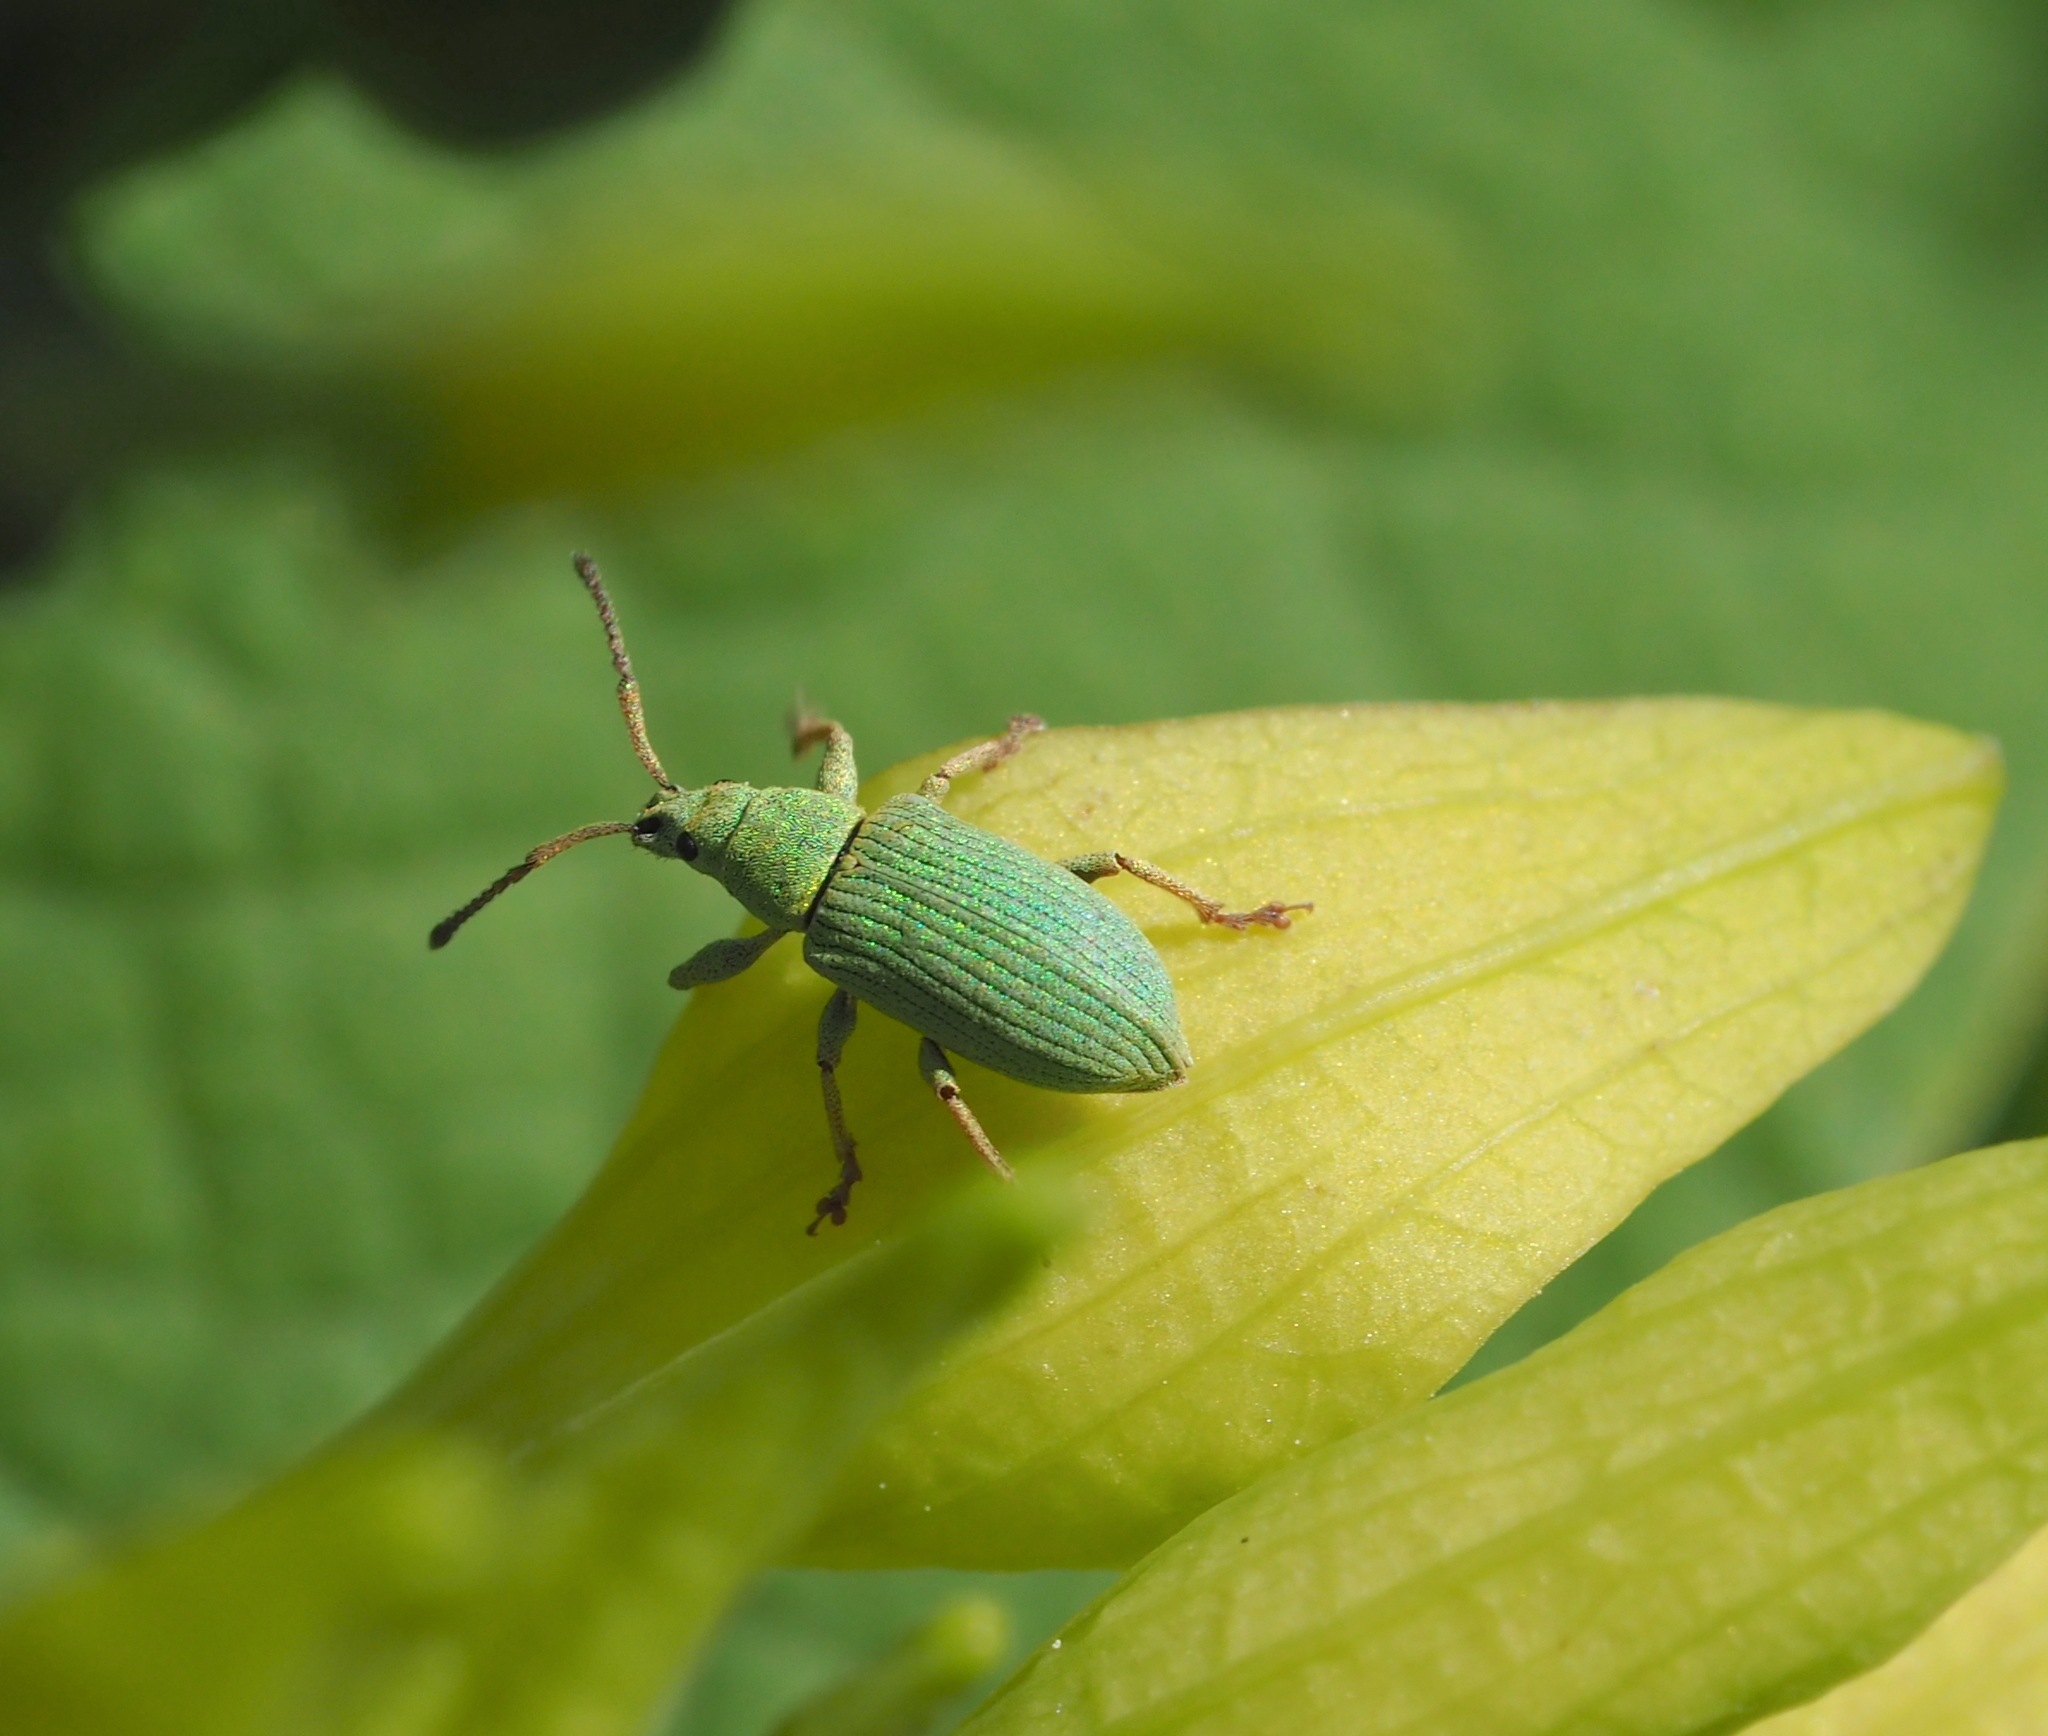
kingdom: Animalia
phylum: Arthropoda
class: Insecta
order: Coleoptera
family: Curculionidae
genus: Phyllobius
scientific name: Phyllobius virideaeris
